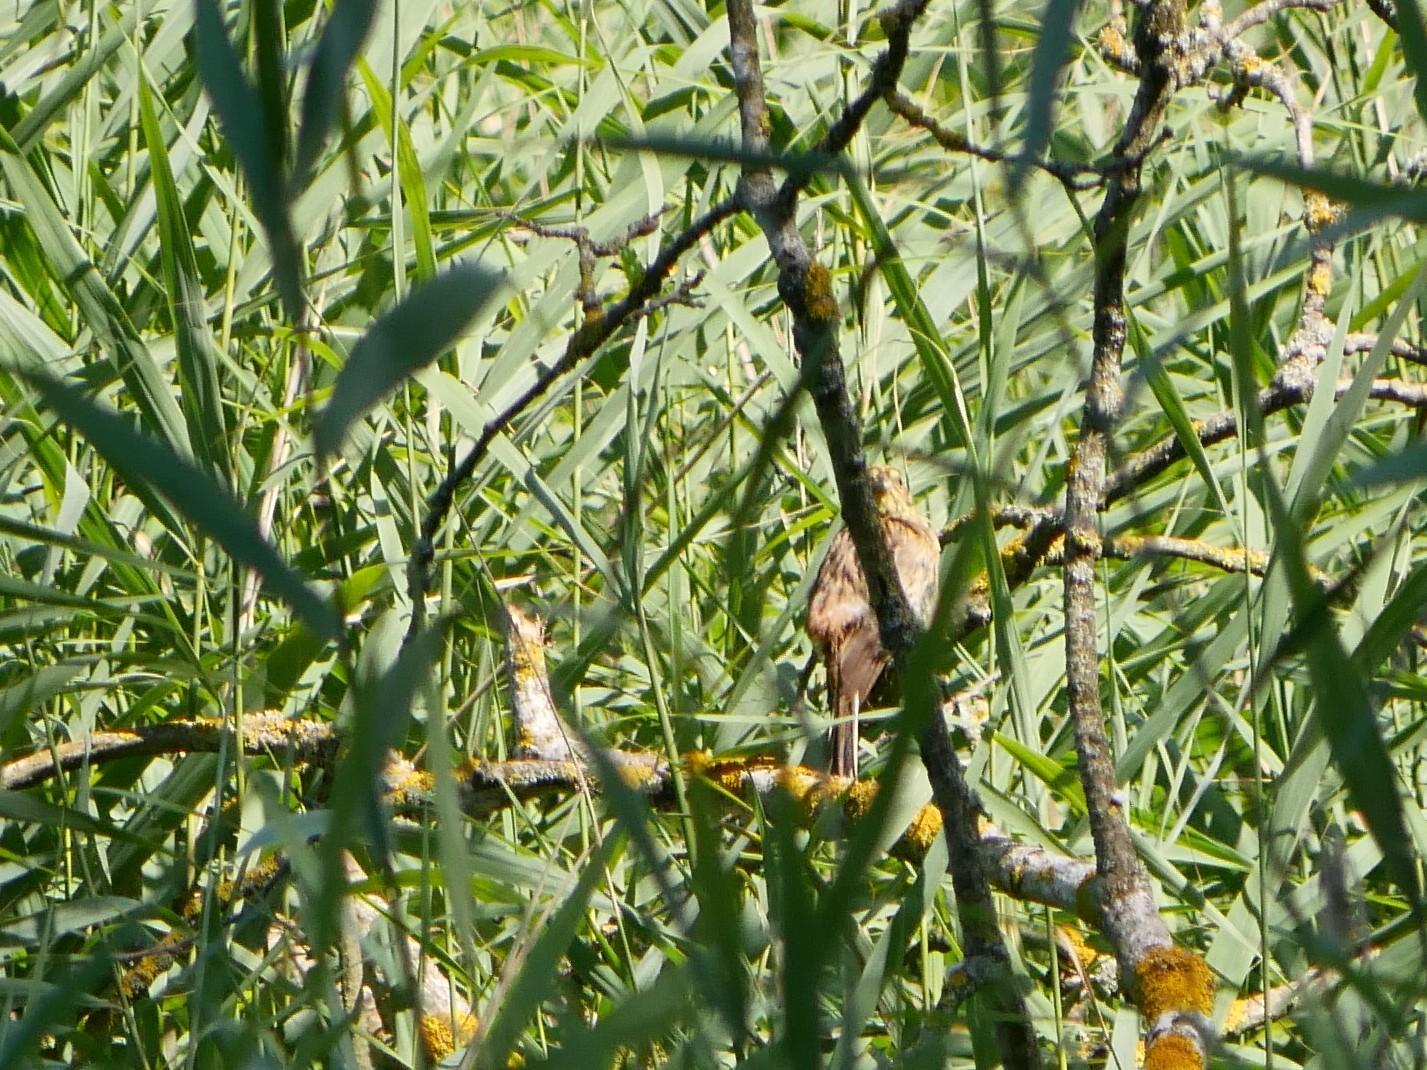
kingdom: Animalia
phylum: Chordata
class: Aves
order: Passeriformes
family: Emberizidae
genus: Emberiza
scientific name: Emberiza citrinella
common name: Yellowhammer
